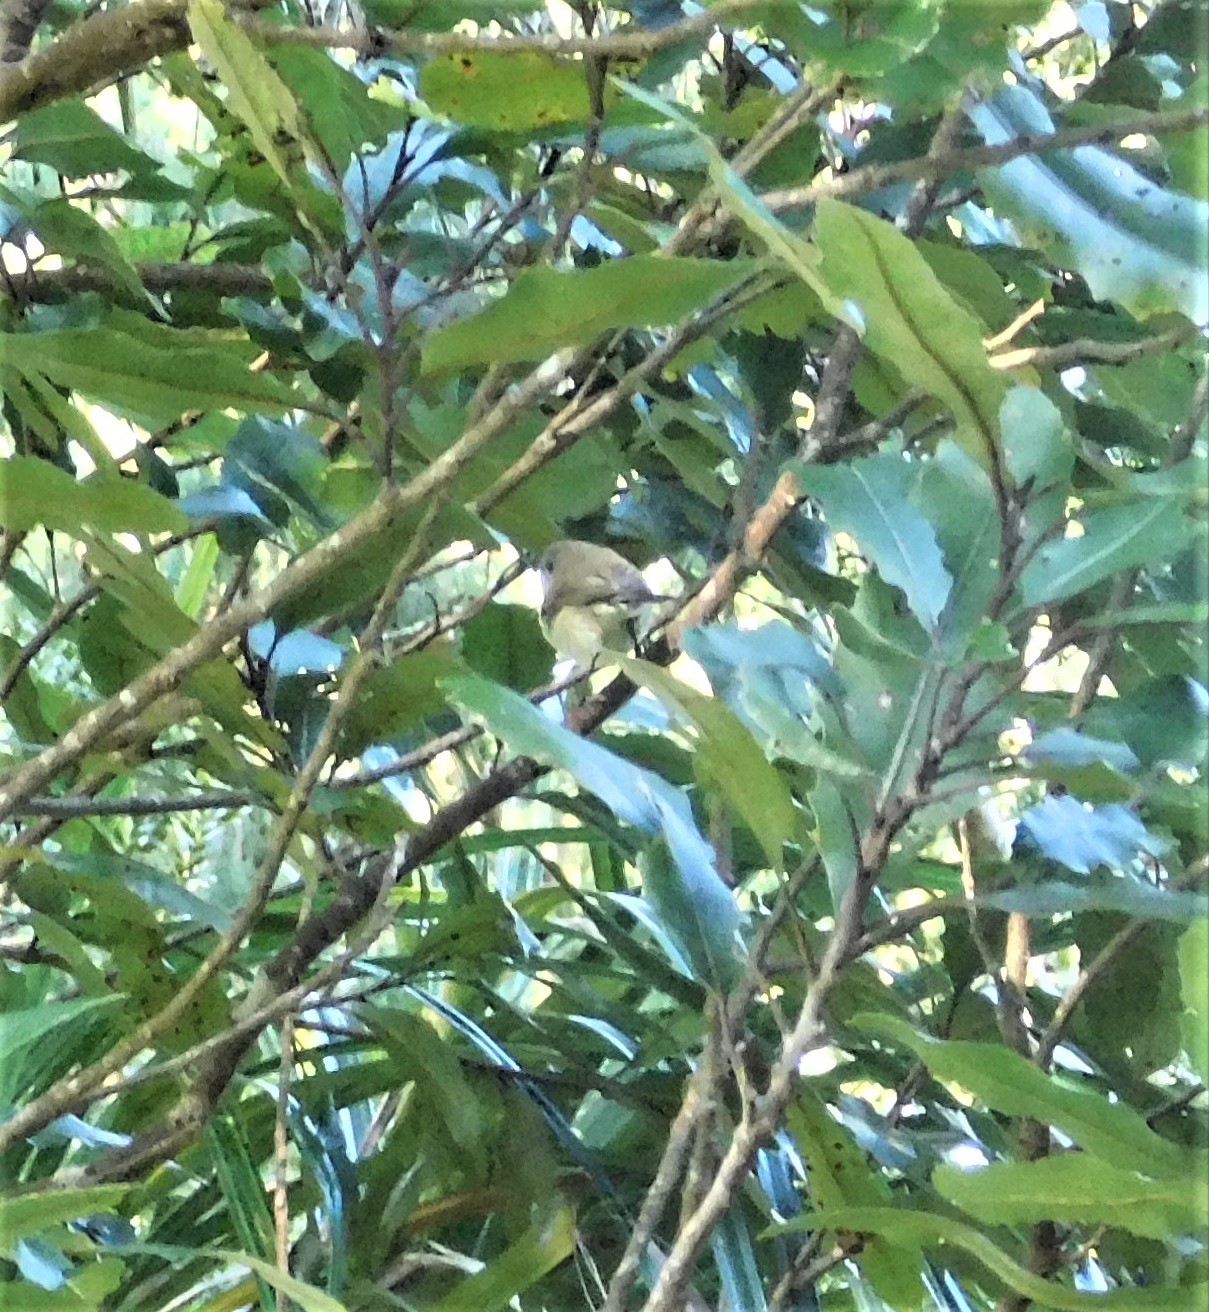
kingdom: Animalia
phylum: Chordata
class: Aves
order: Passeriformes
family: Acanthizidae
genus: Gerygone
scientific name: Gerygone igata
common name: Grey gerygone
